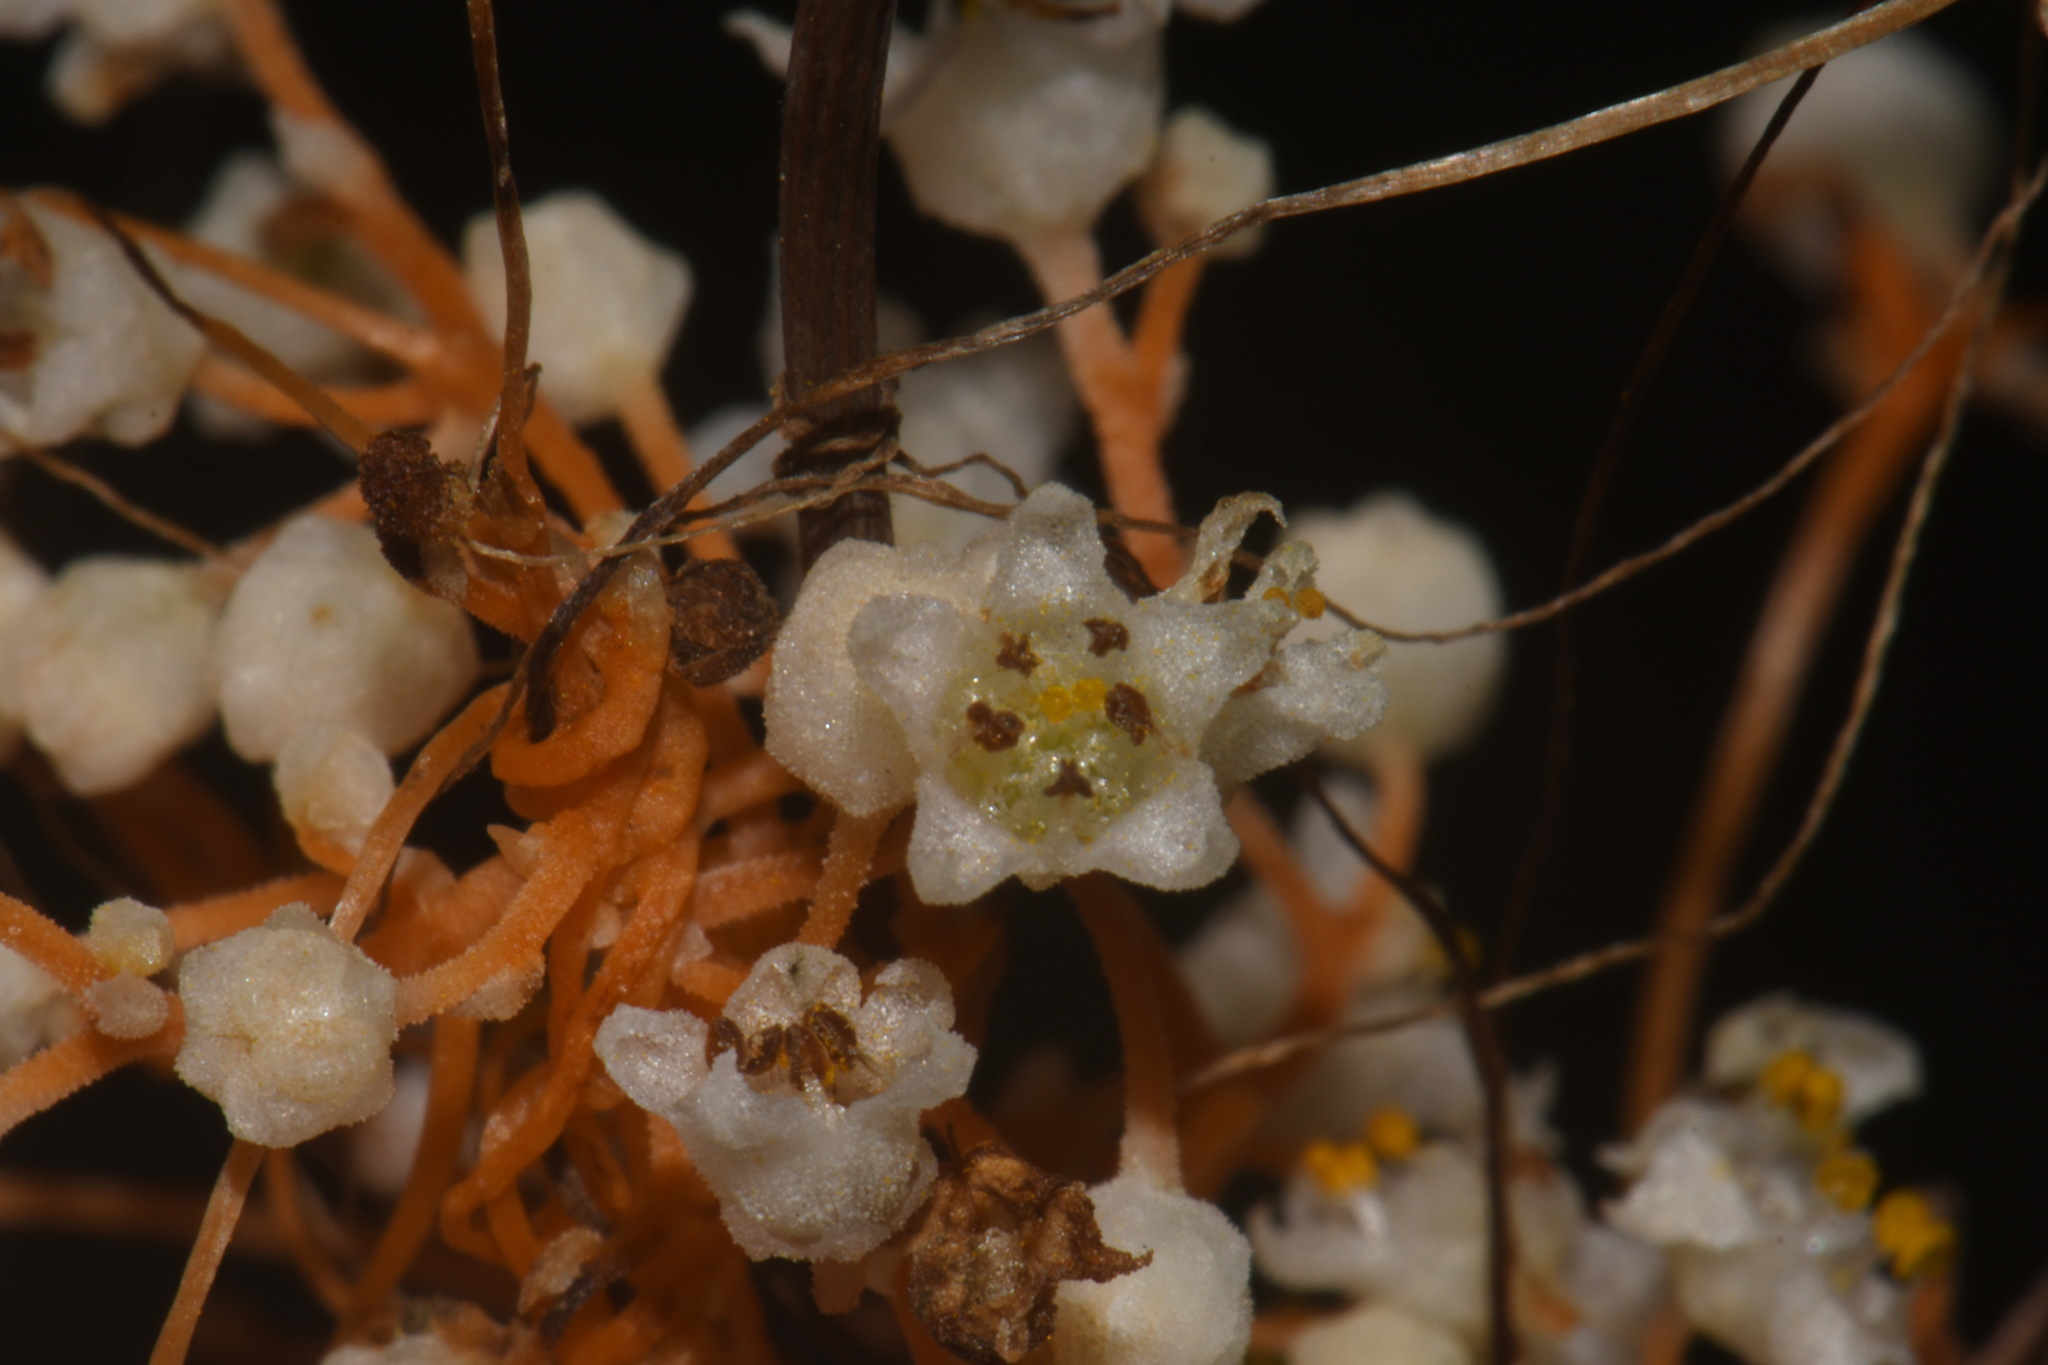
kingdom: Plantae
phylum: Tracheophyta
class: Magnoliopsida
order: Solanales
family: Convolvulaceae
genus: Cuscuta
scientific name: Cuscuta indecora
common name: Large-seed dodder
